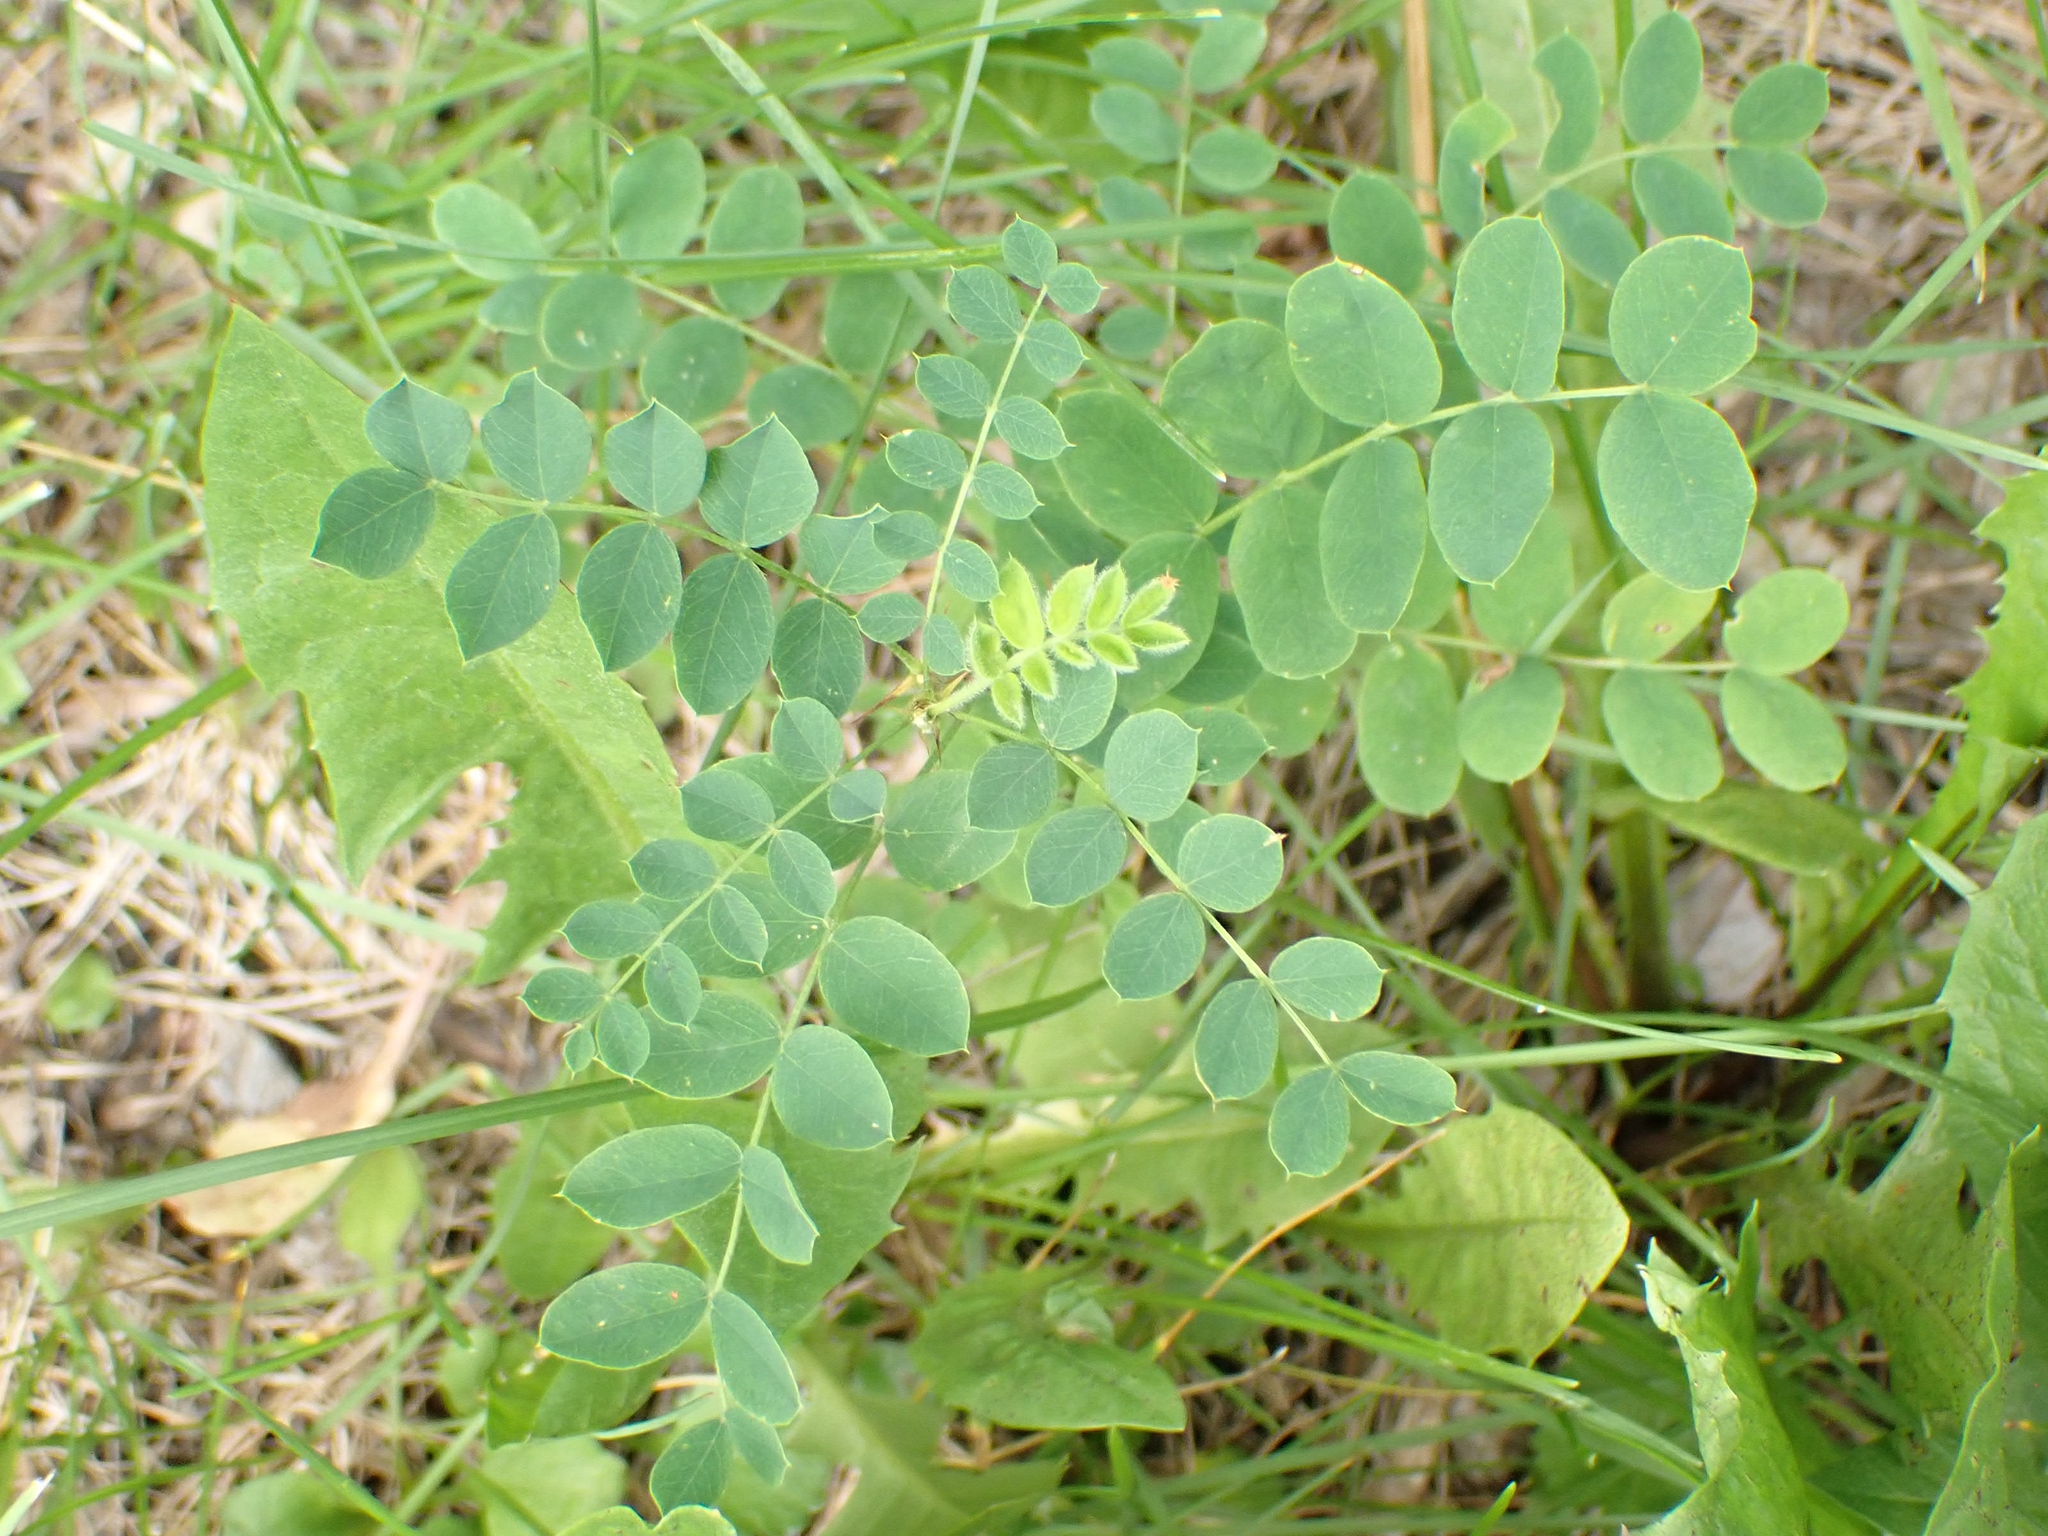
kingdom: Plantae
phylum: Tracheophyta
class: Magnoliopsida
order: Fabales
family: Fabaceae
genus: Caragana
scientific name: Caragana arborescens
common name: Siberian peashrub
